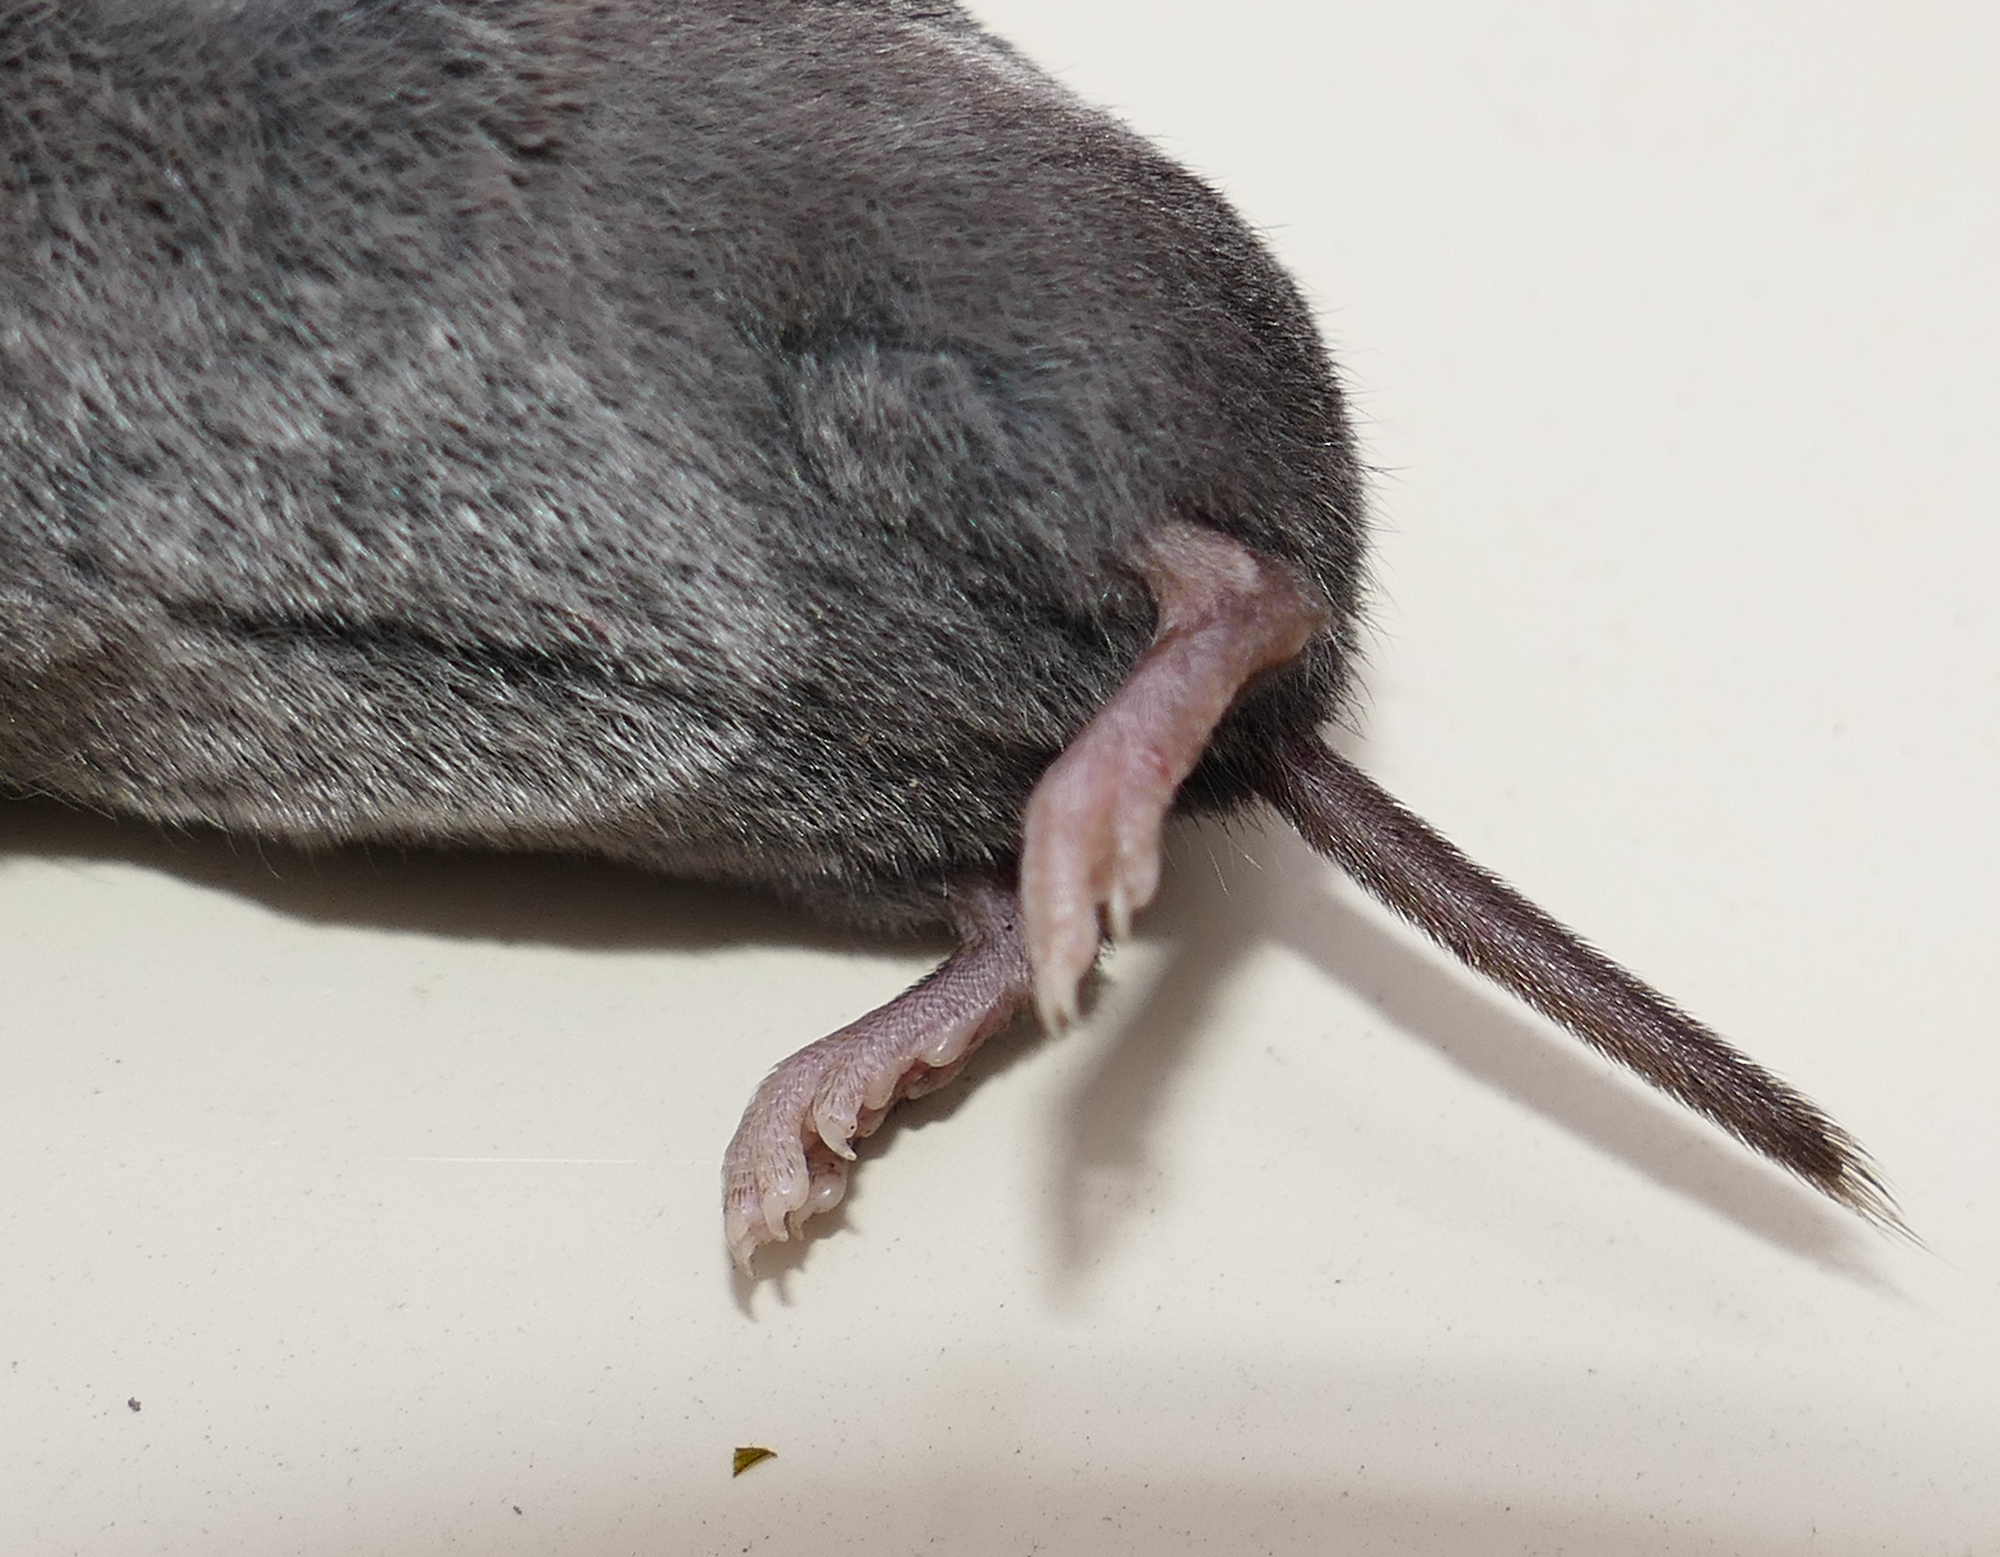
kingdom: Animalia
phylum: Chordata
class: Mammalia
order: Soricomorpha
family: Soricidae
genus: Blarina
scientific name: Blarina brevicauda
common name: Northern short-tailed shrew
